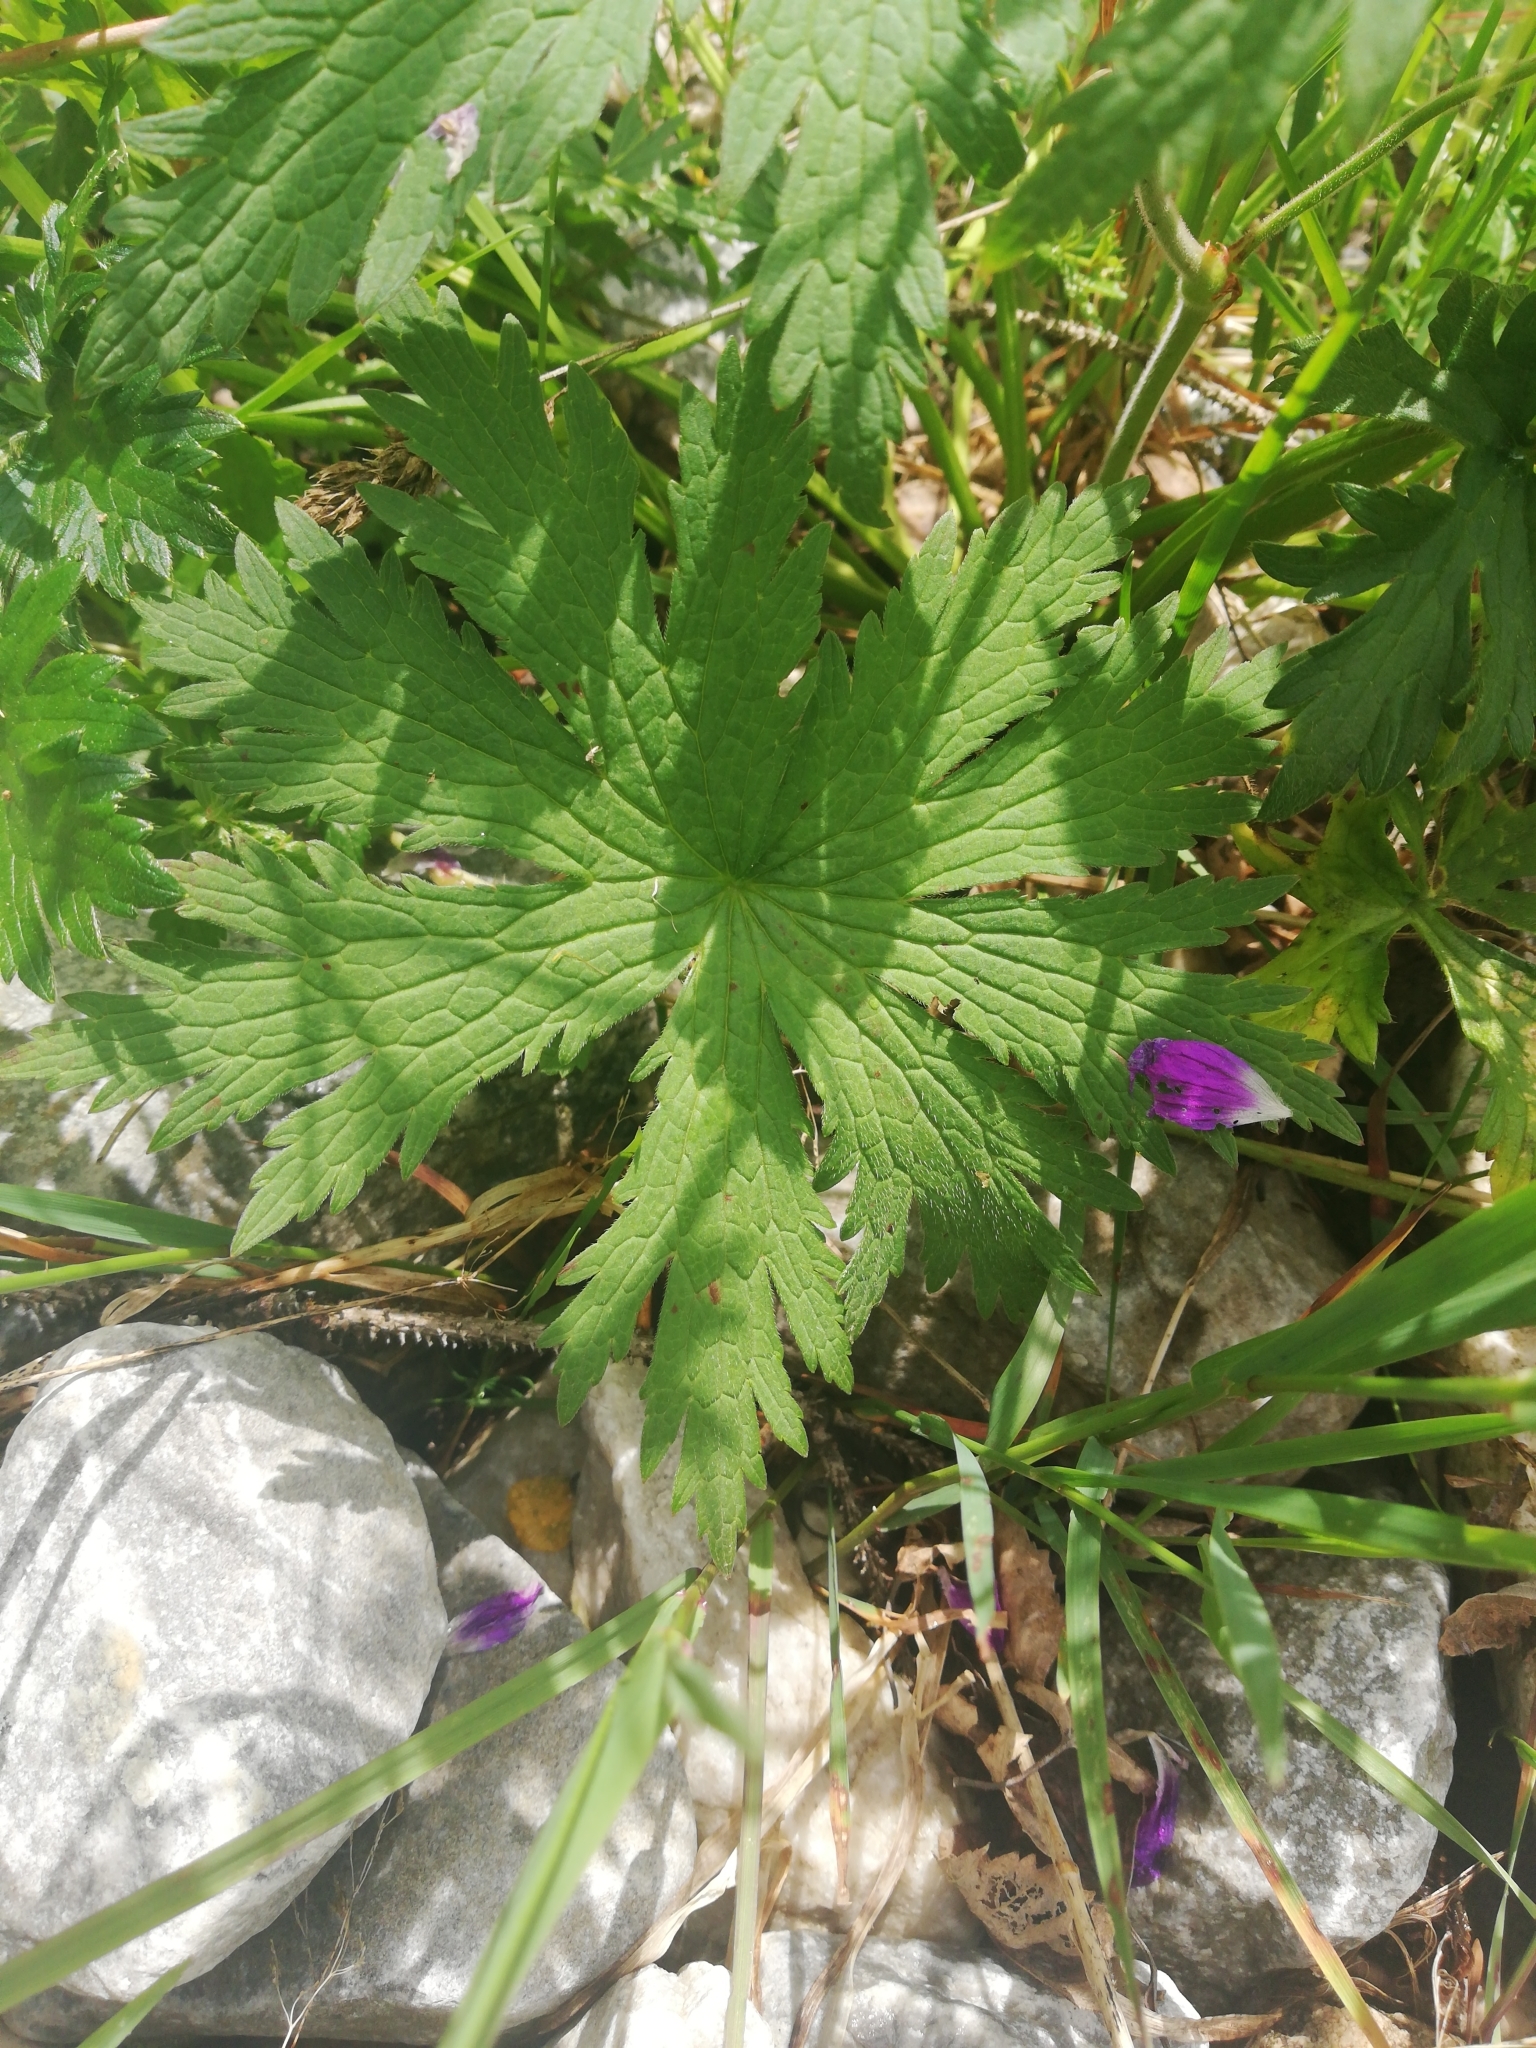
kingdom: Plantae
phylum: Tracheophyta
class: Magnoliopsida
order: Geraniales
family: Geraniaceae
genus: Geranium
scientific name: Geranium sylvaticum
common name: Wood crane's-bill
